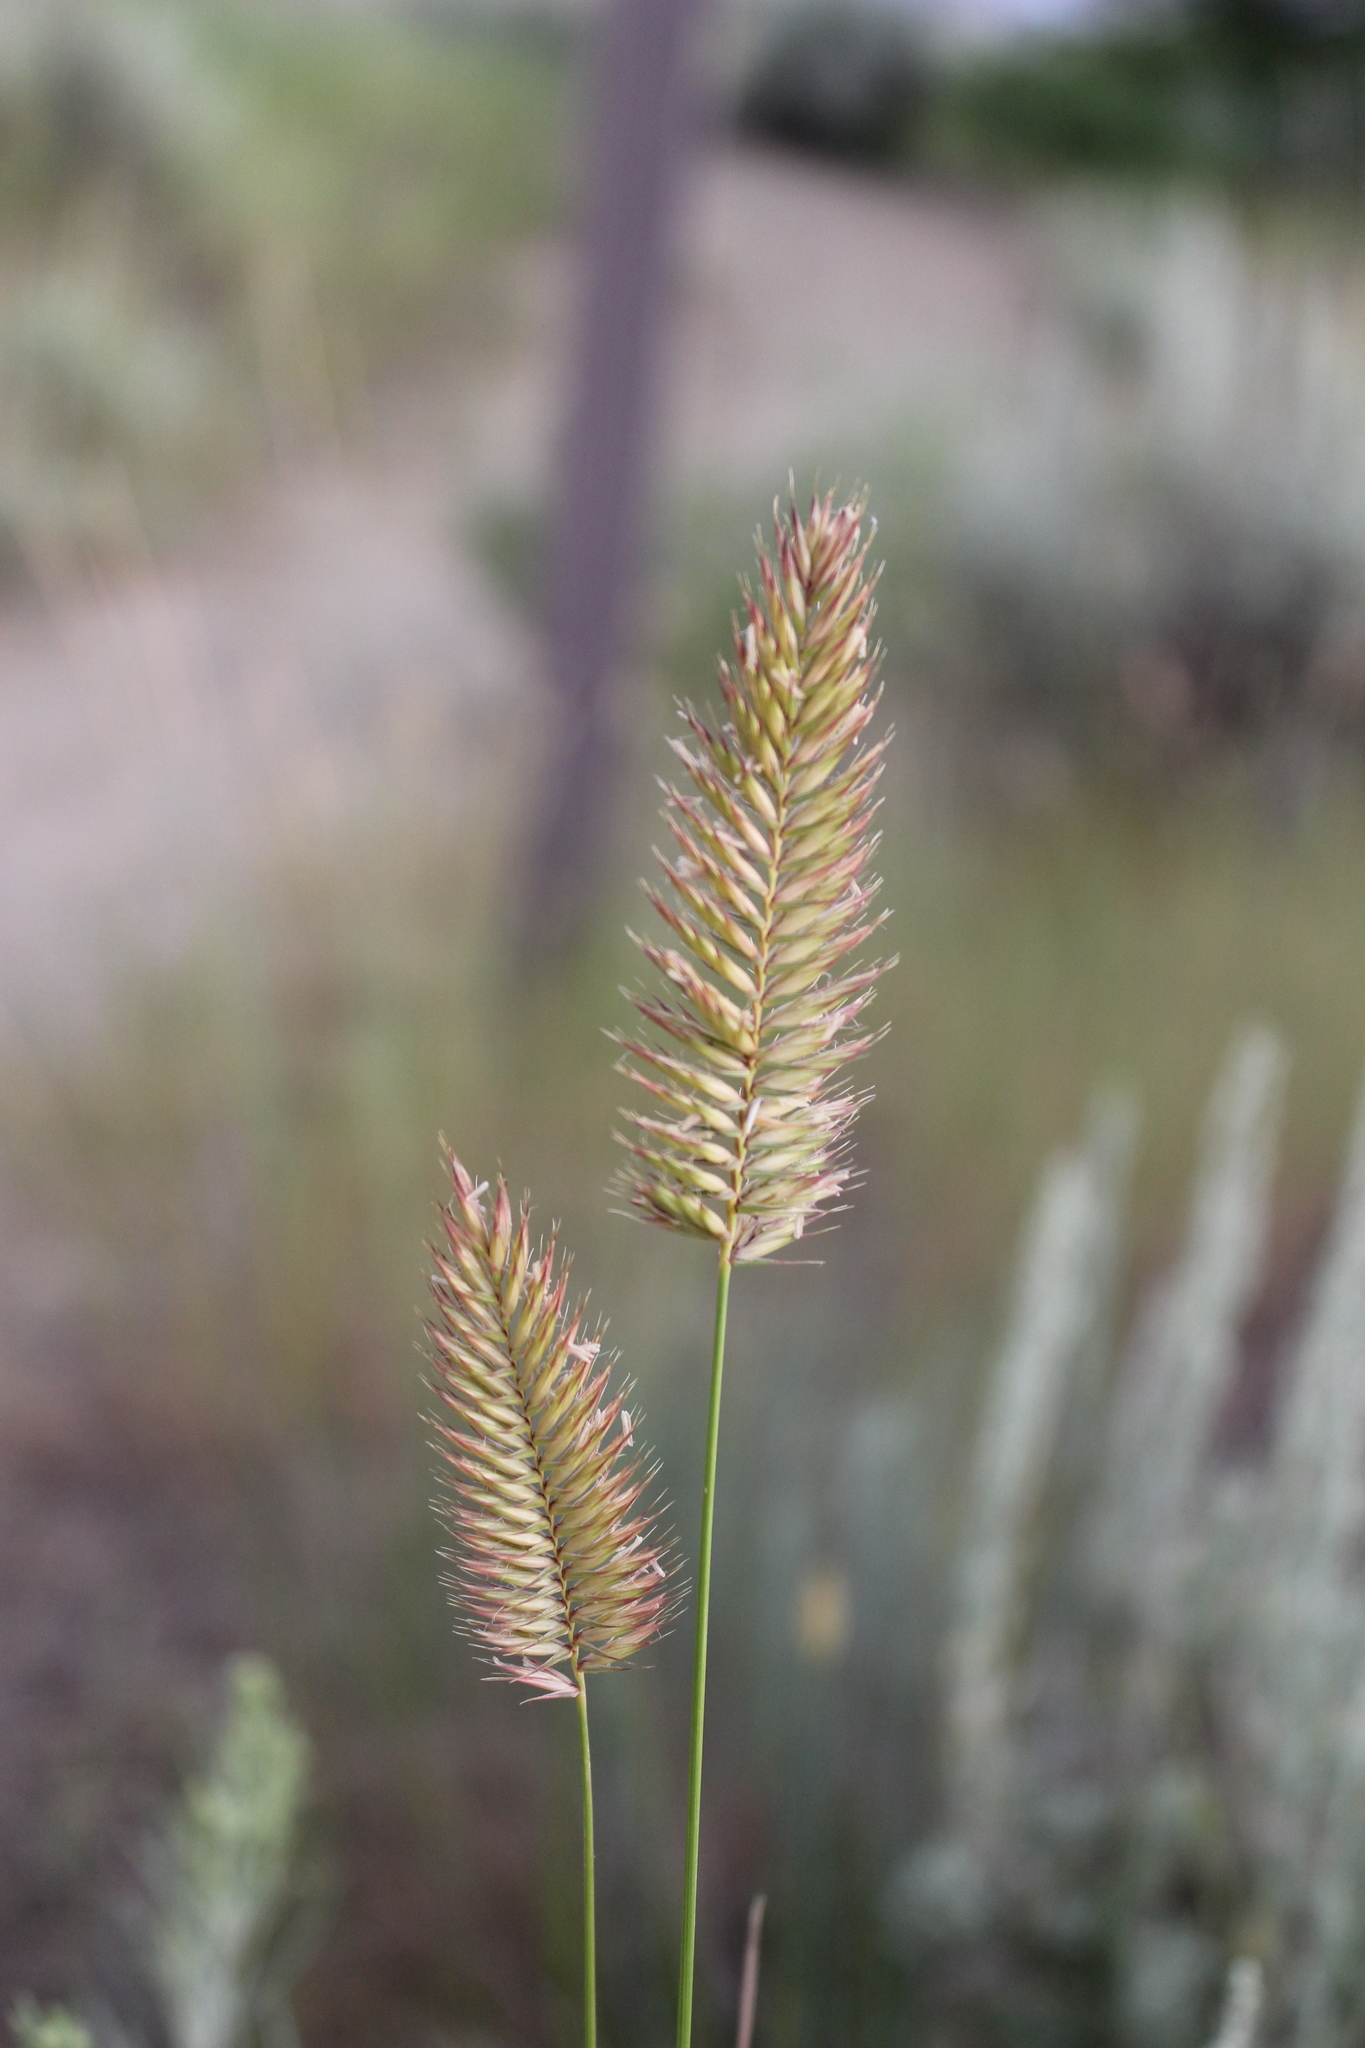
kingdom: Plantae
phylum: Tracheophyta
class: Liliopsida
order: Poales
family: Poaceae
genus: Agropyron
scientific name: Agropyron cristatum
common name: Crested wheatgrass
